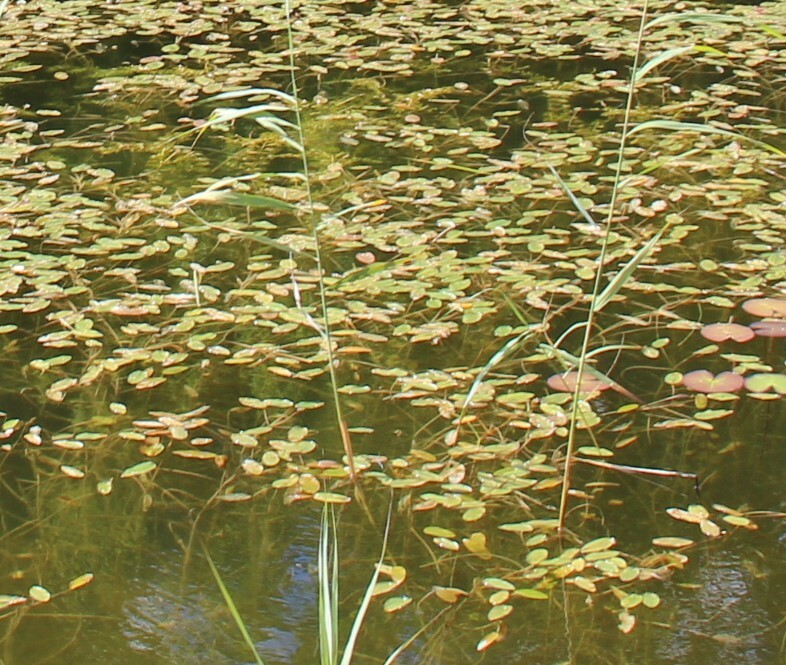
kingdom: Plantae
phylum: Tracheophyta
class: Liliopsida
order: Alismatales
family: Potamogetonaceae
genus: Potamogeton
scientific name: Potamogeton natans
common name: Broad-leaved pondweed
